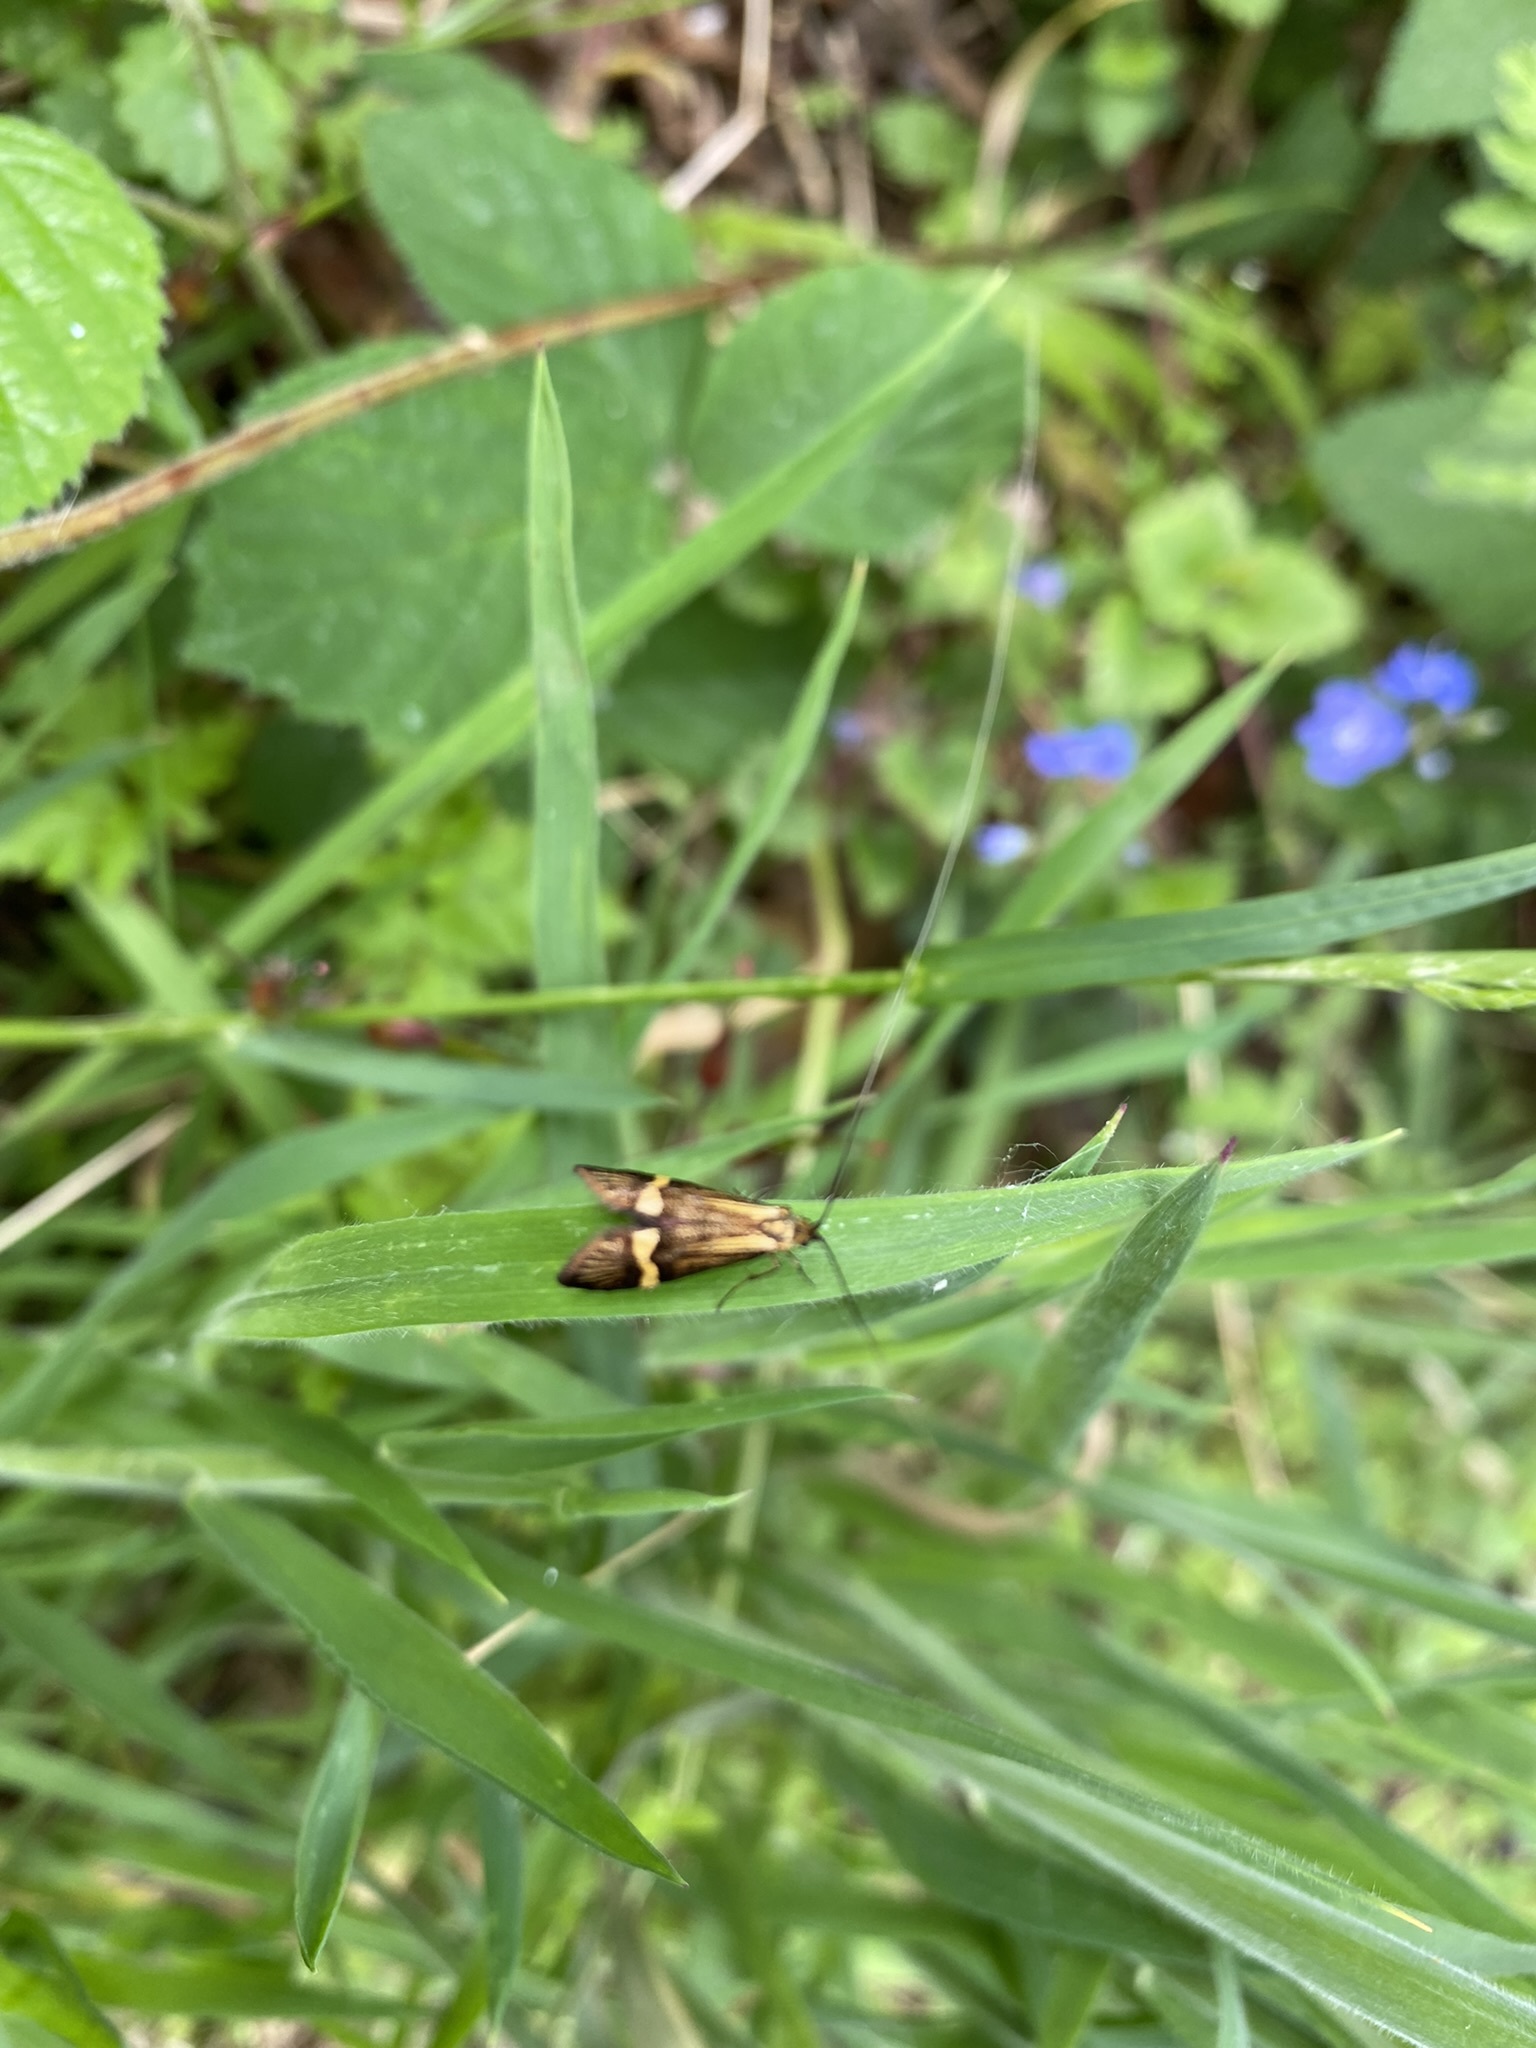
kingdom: Animalia
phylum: Arthropoda
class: Insecta
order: Lepidoptera
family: Adelidae
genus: Nemophora
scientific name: Nemophora degeerella
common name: Yellow-barred long-horn
